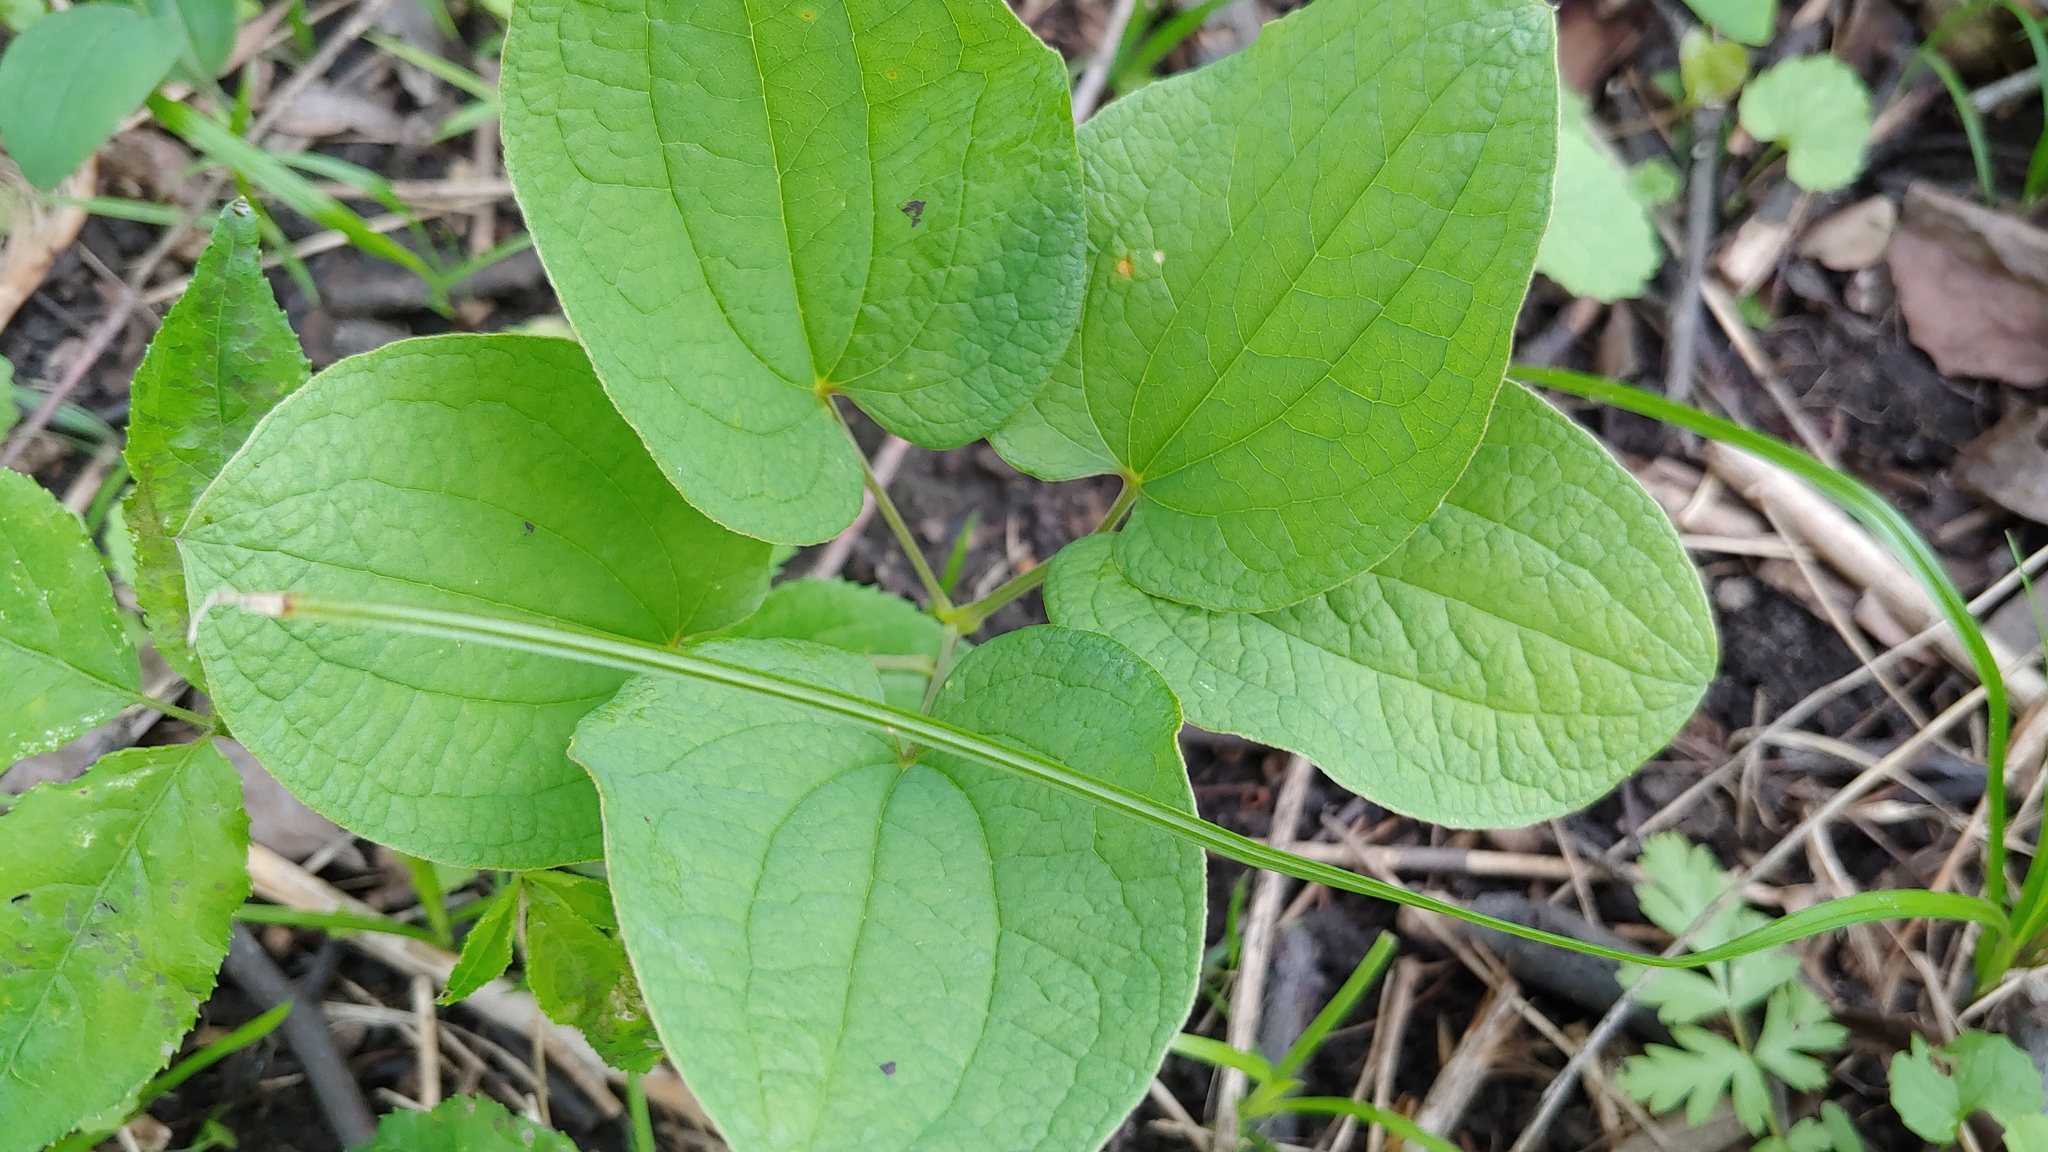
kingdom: Plantae
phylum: Tracheophyta
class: Liliopsida
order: Liliales
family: Smilacaceae
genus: Smilax
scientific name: Smilax ecirrhata
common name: Upright carrionflower
